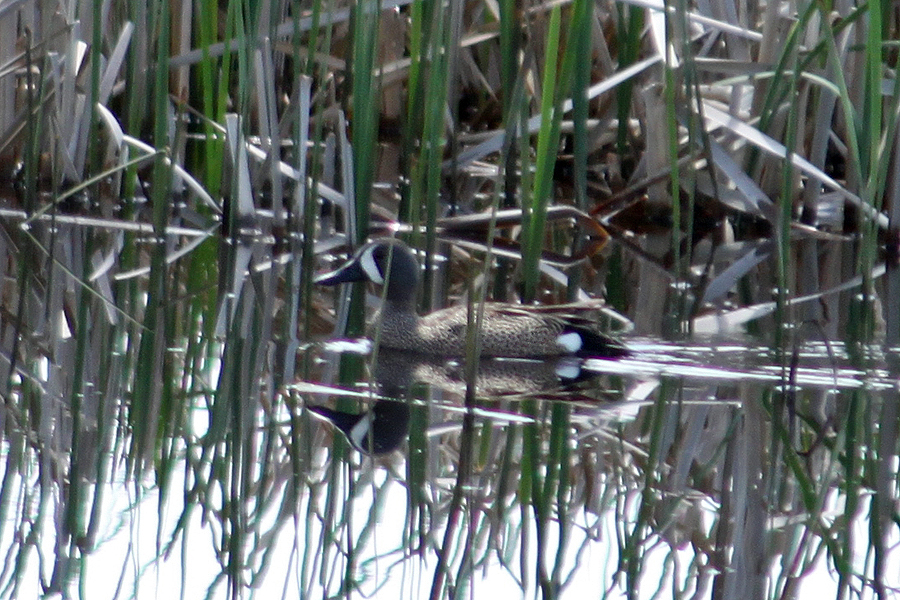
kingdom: Animalia
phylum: Chordata
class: Aves
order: Anseriformes
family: Anatidae
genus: Spatula
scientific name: Spatula discors
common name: Blue-winged teal
